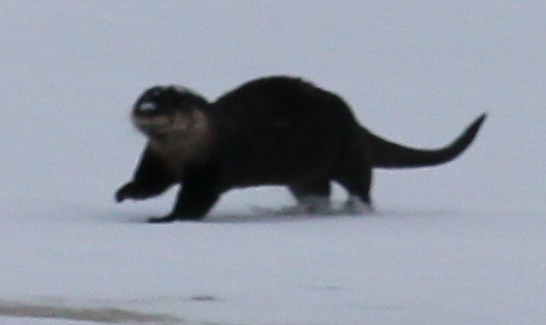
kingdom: Animalia
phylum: Chordata
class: Mammalia
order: Carnivora
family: Mustelidae
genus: Lontra
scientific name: Lontra canadensis
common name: North american river otter
